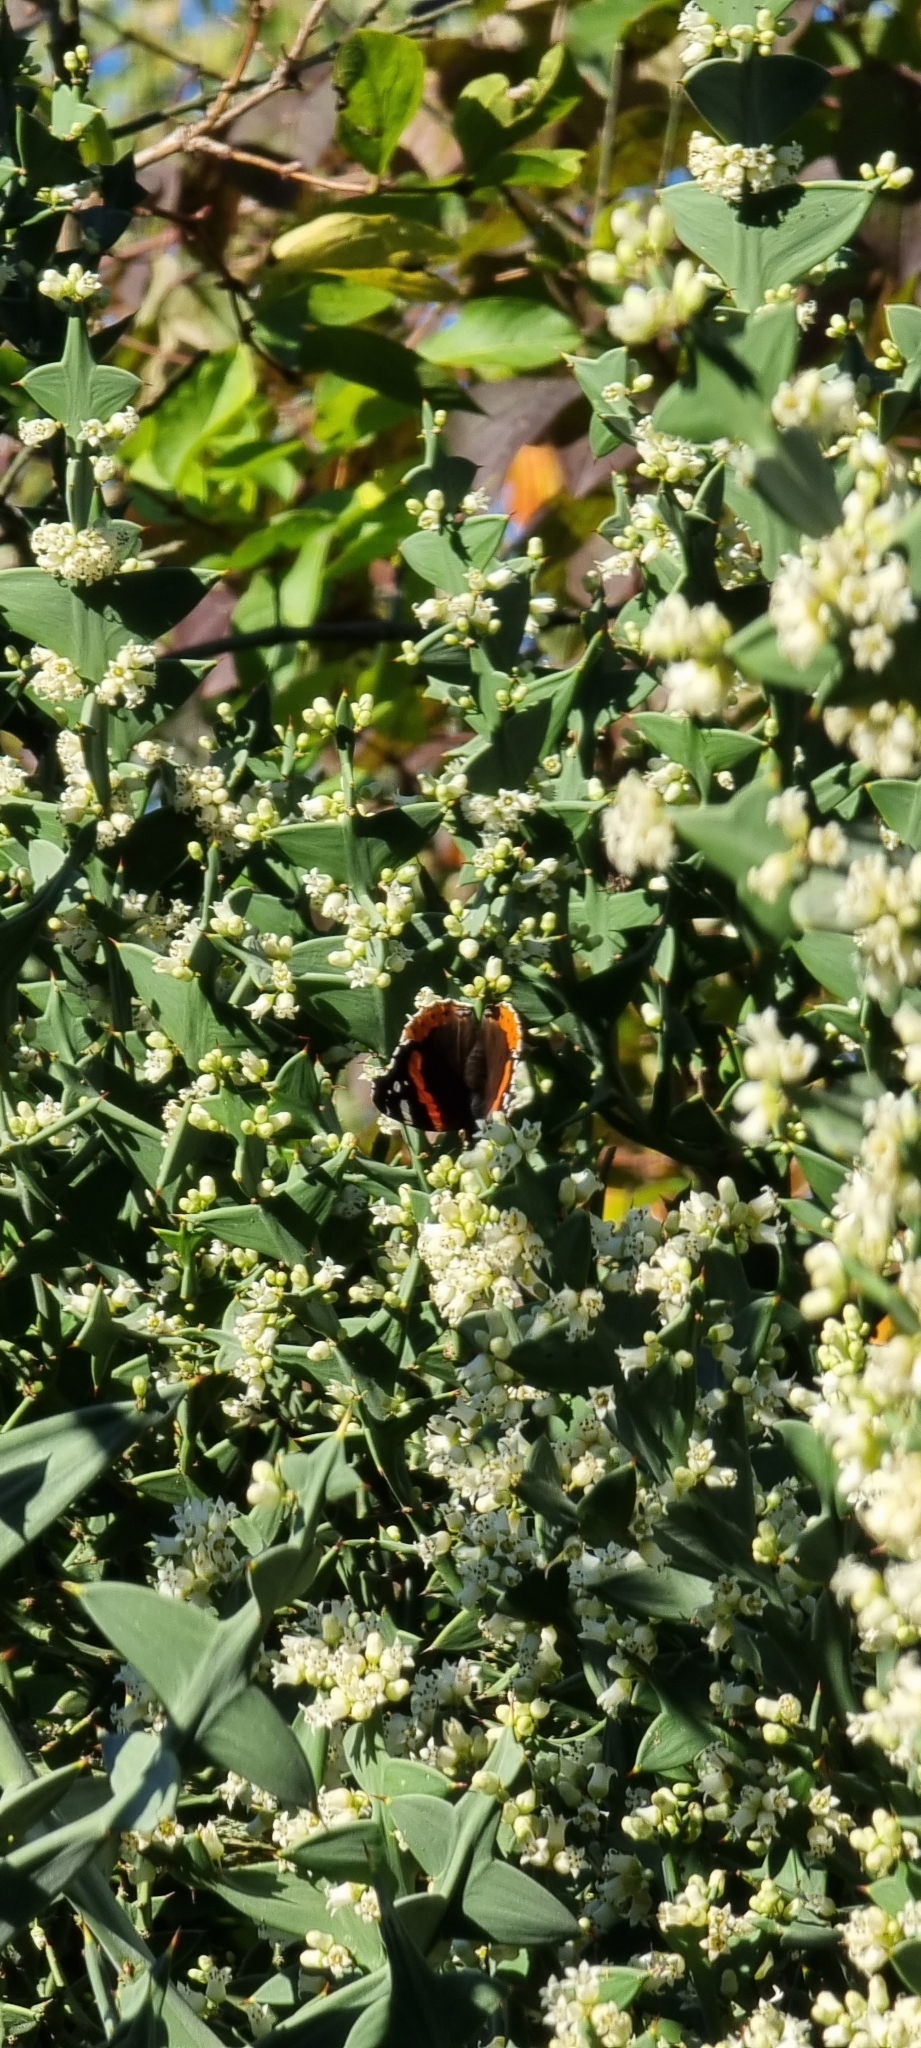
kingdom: Animalia
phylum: Arthropoda
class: Insecta
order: Lepidoptera
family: Nymphalidae
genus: Vanessa
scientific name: Vanessa atalanta
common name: Red admiral
